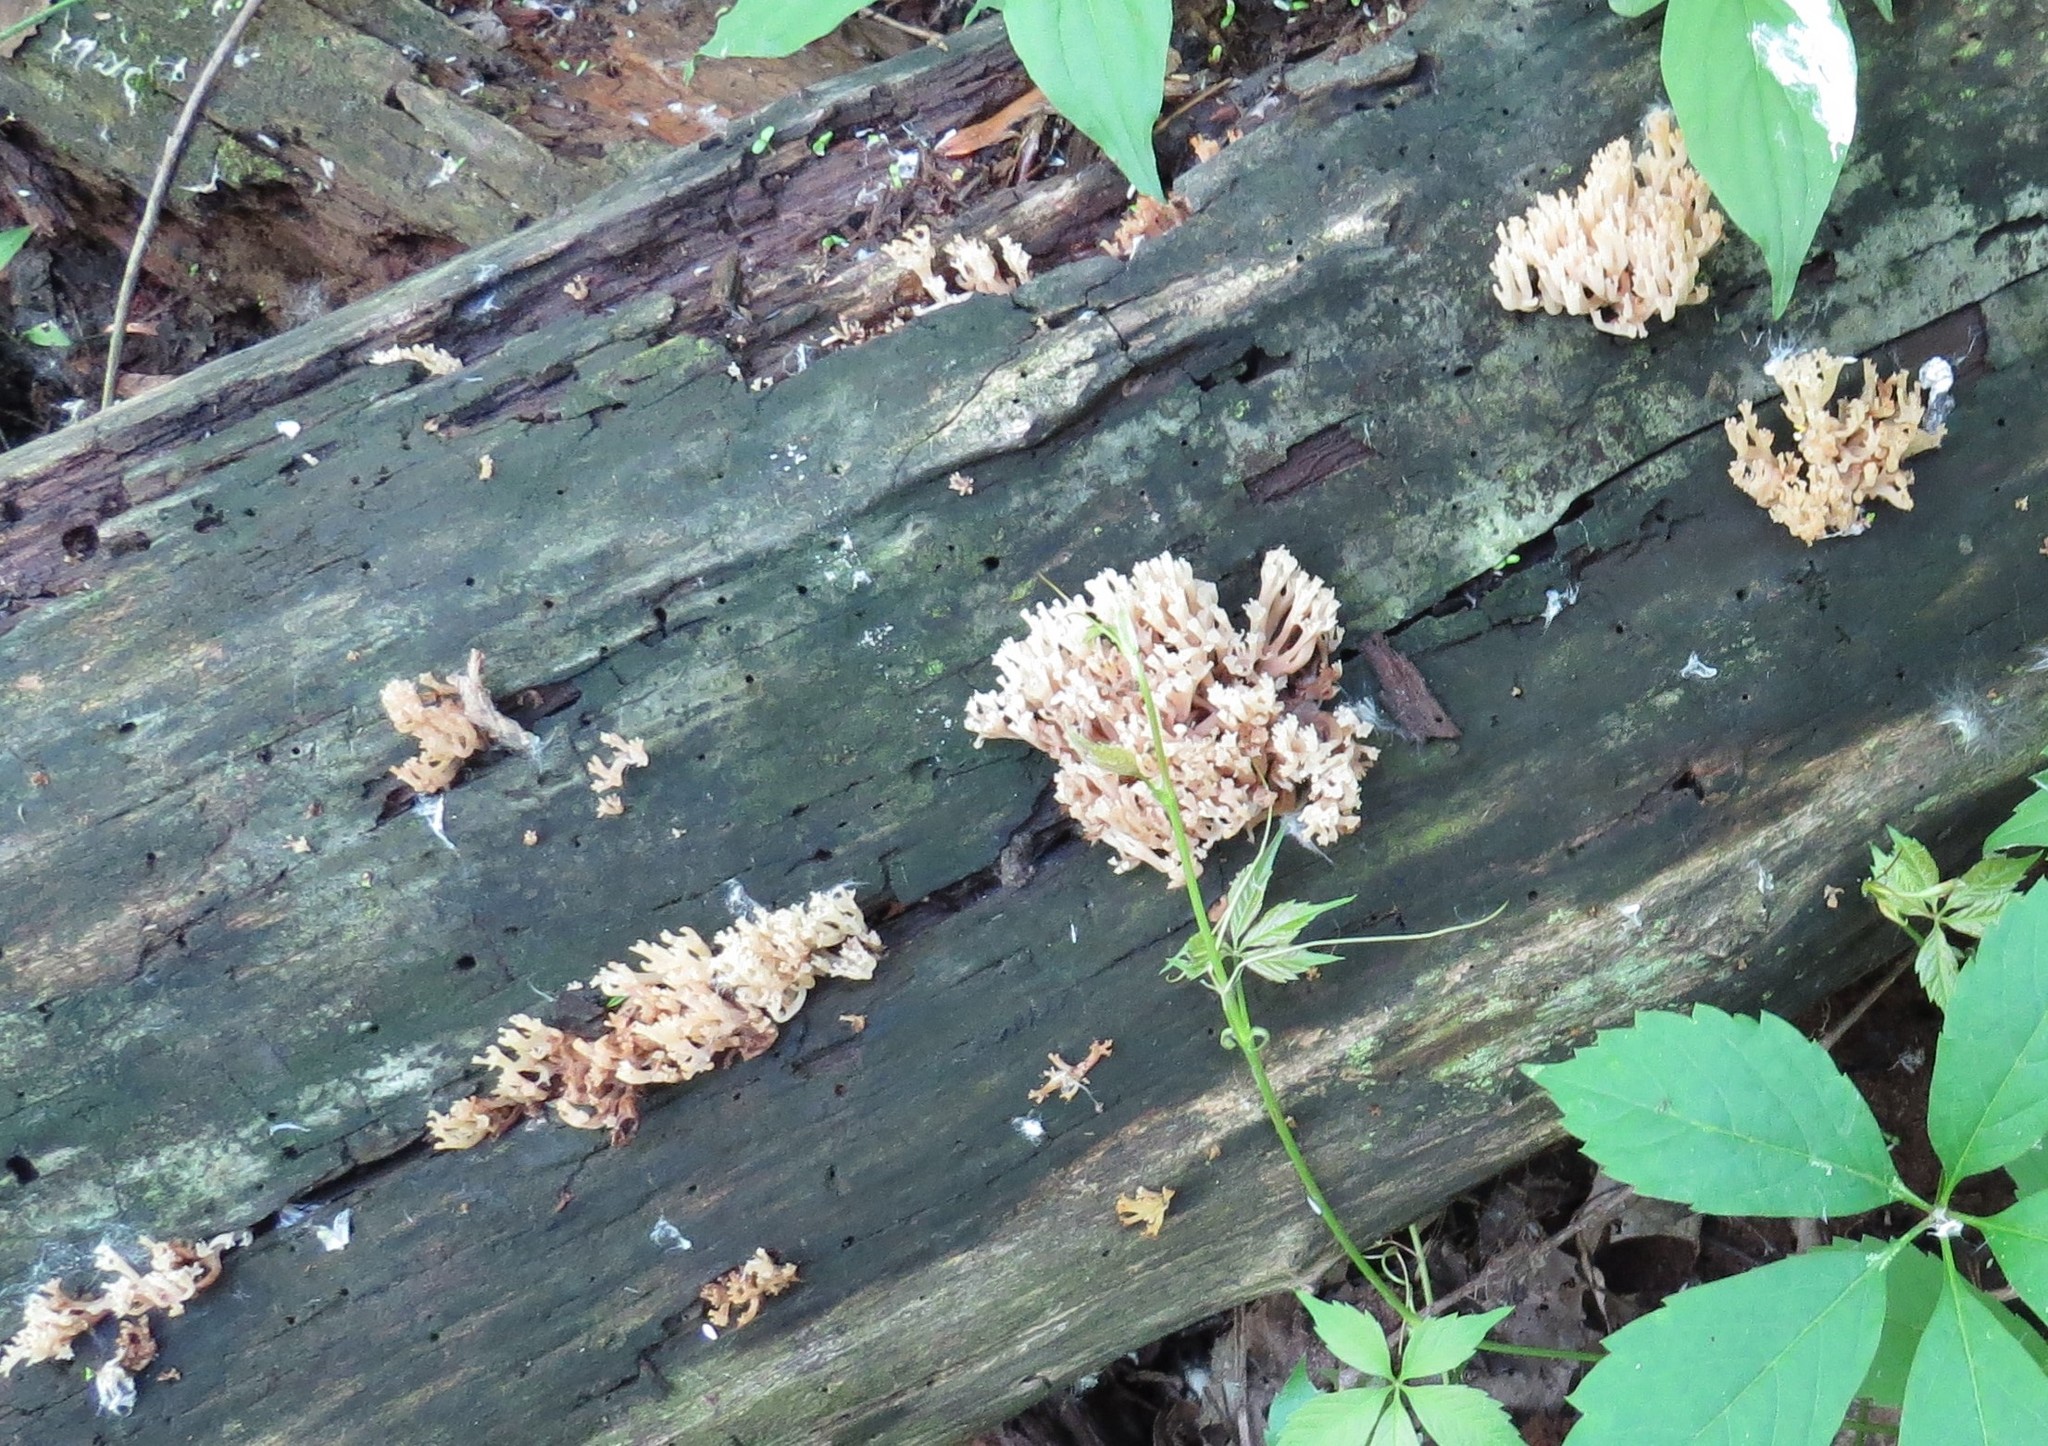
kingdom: Fungi
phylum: Basidiomycota
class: Agaricomycetes
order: Russulales
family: Auriscalpiaceae
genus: Artomyces
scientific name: Artomyces pyxidatus
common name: Crown-tipped coral fungus
